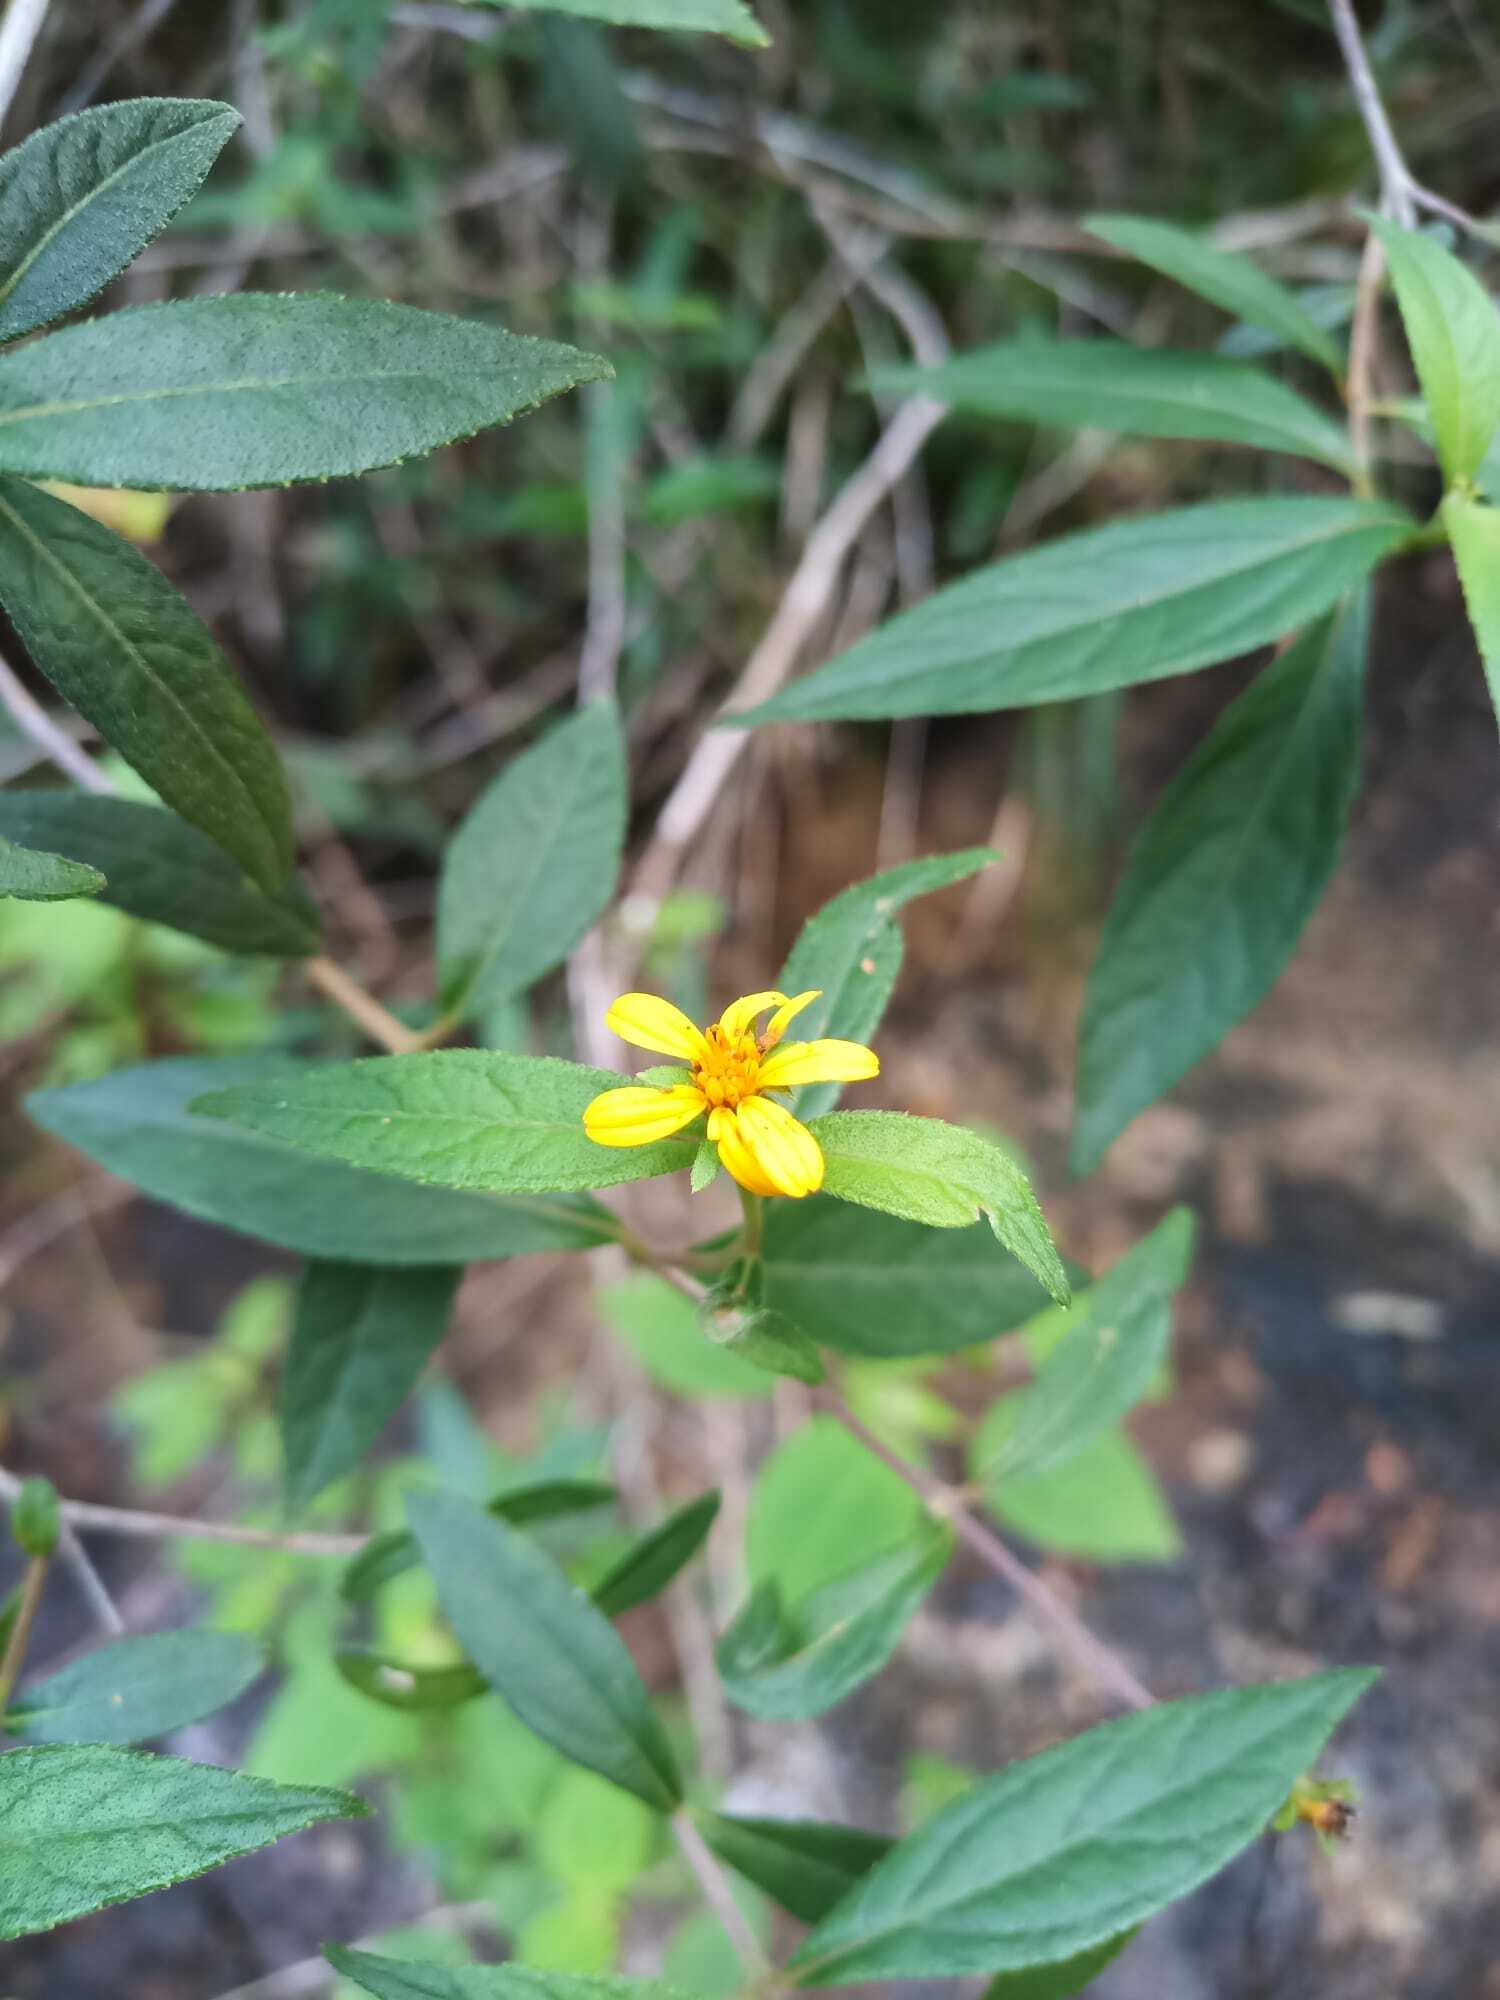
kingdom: Plantae
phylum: Tracheophyta
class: Magnoliopsida
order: Asterales
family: Asteraceae
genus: Elaphandra
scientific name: Elaphandra moriana
